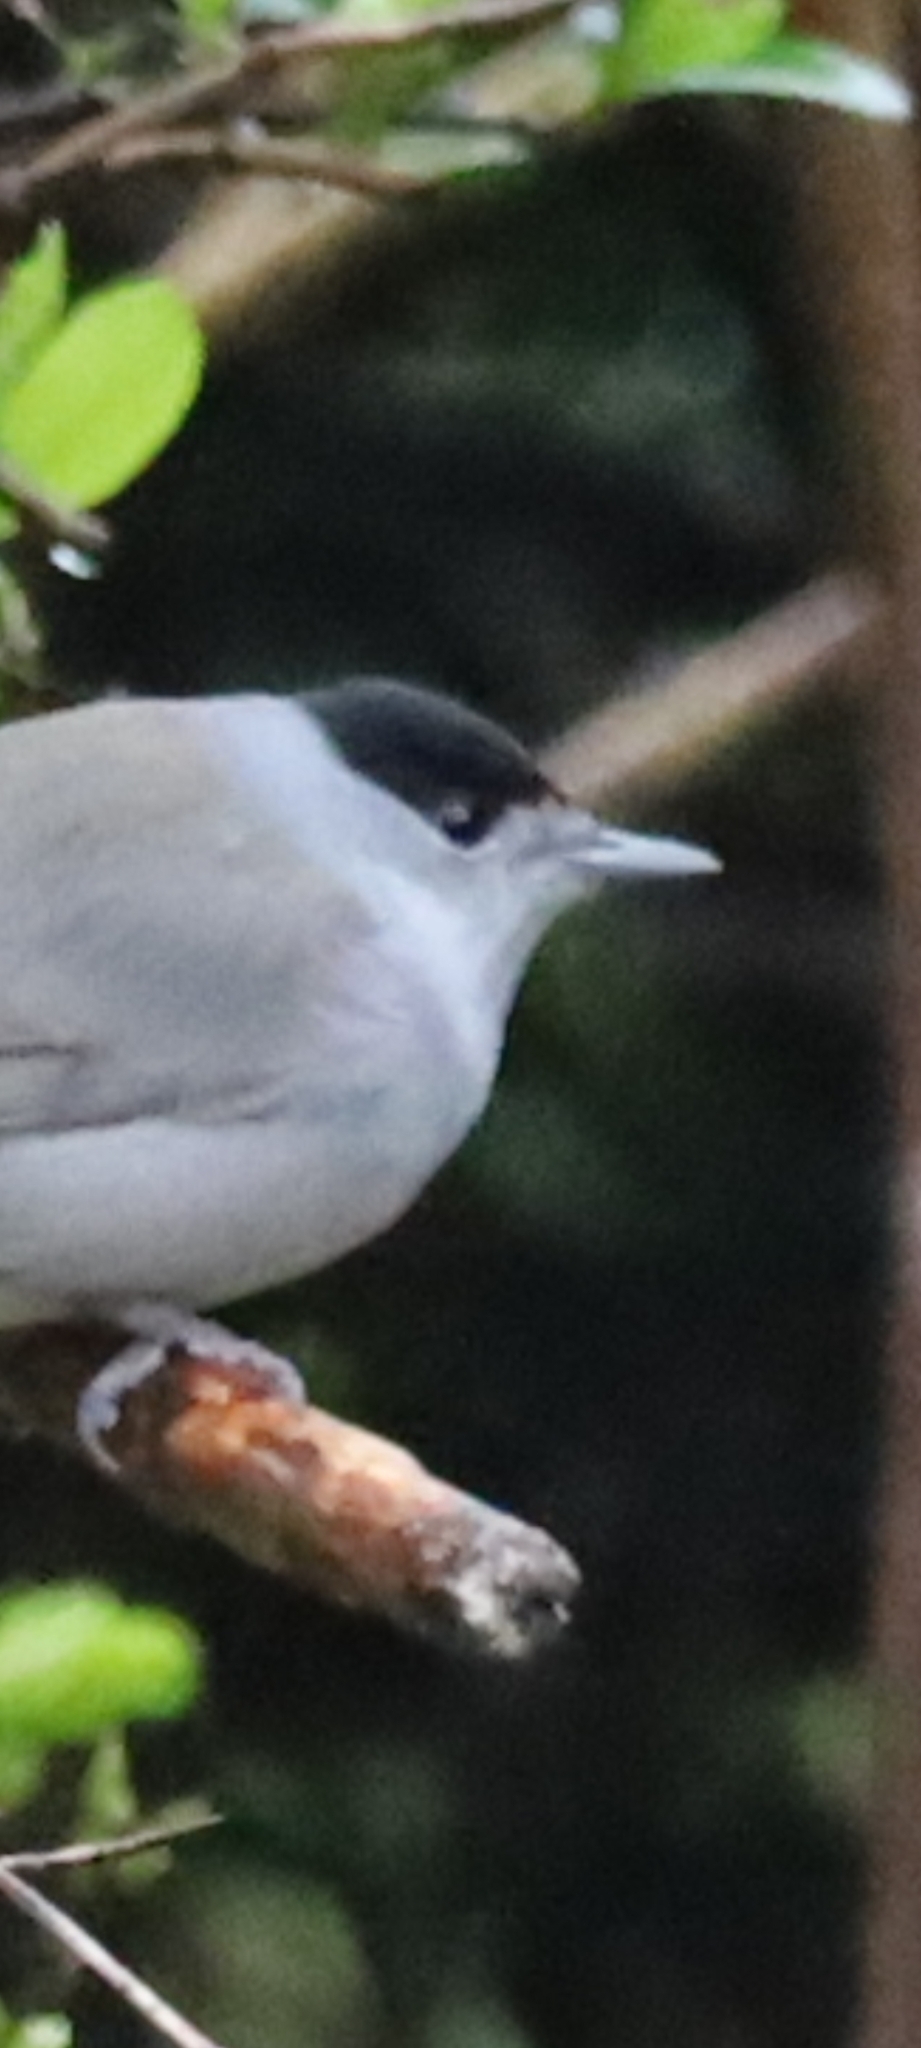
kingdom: Animalia
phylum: Chordata
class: Aves
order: Passeriformes
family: Sylviidae
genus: Sylvia
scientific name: Sylvia atricapilla
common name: Eurasian blackcap
